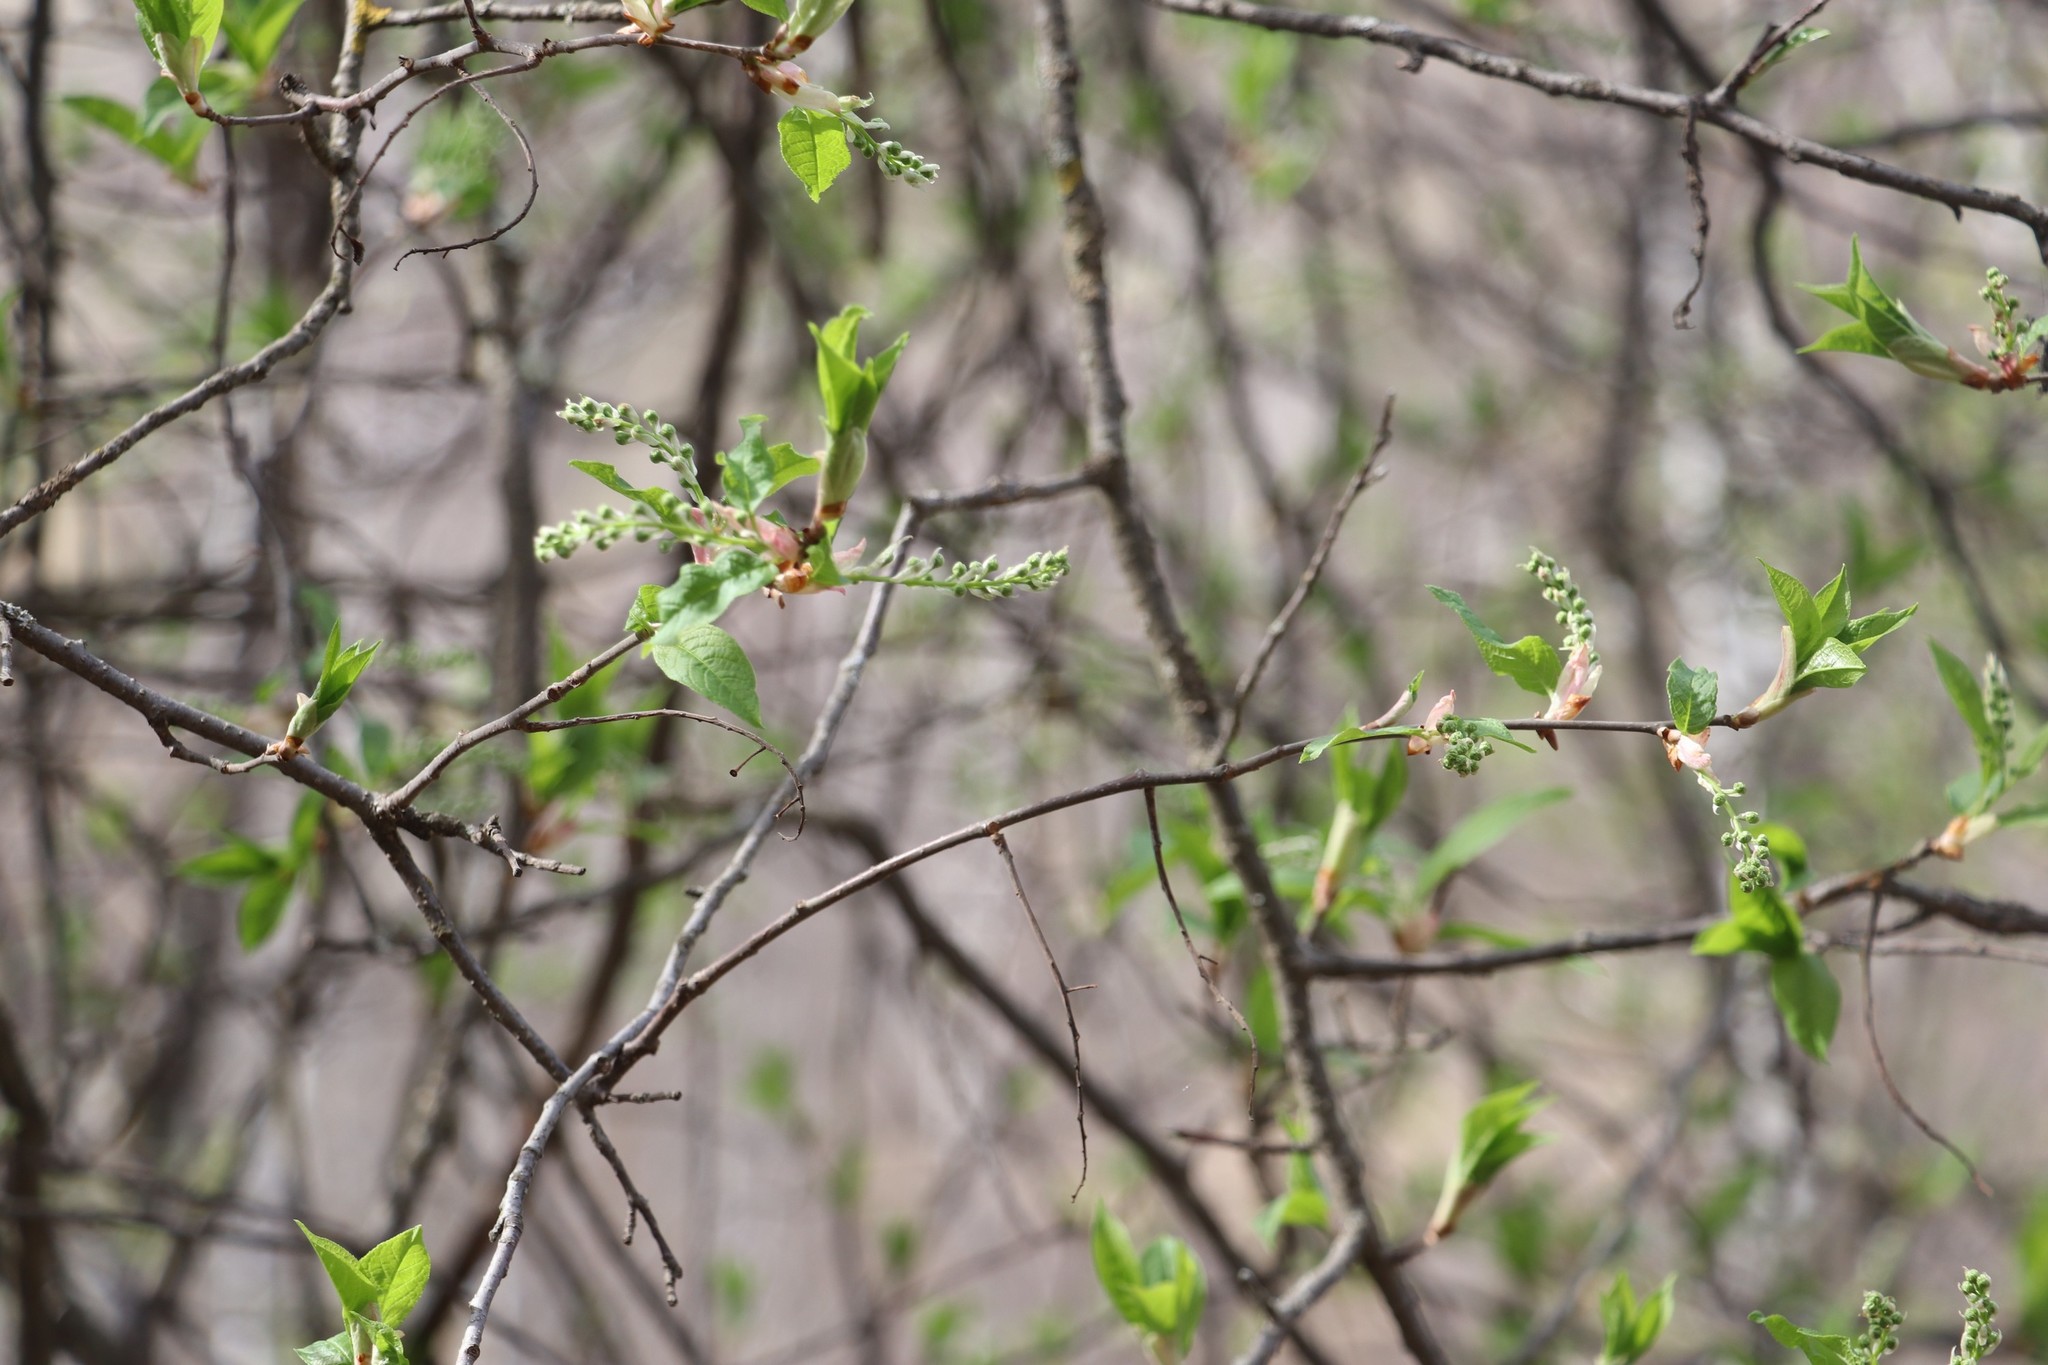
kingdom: Plantae
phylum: Tracheophyta
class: Magnoliopsida
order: Rosales
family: Rosaceae
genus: Prunus
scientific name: Prunus padus
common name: Bird cherry
